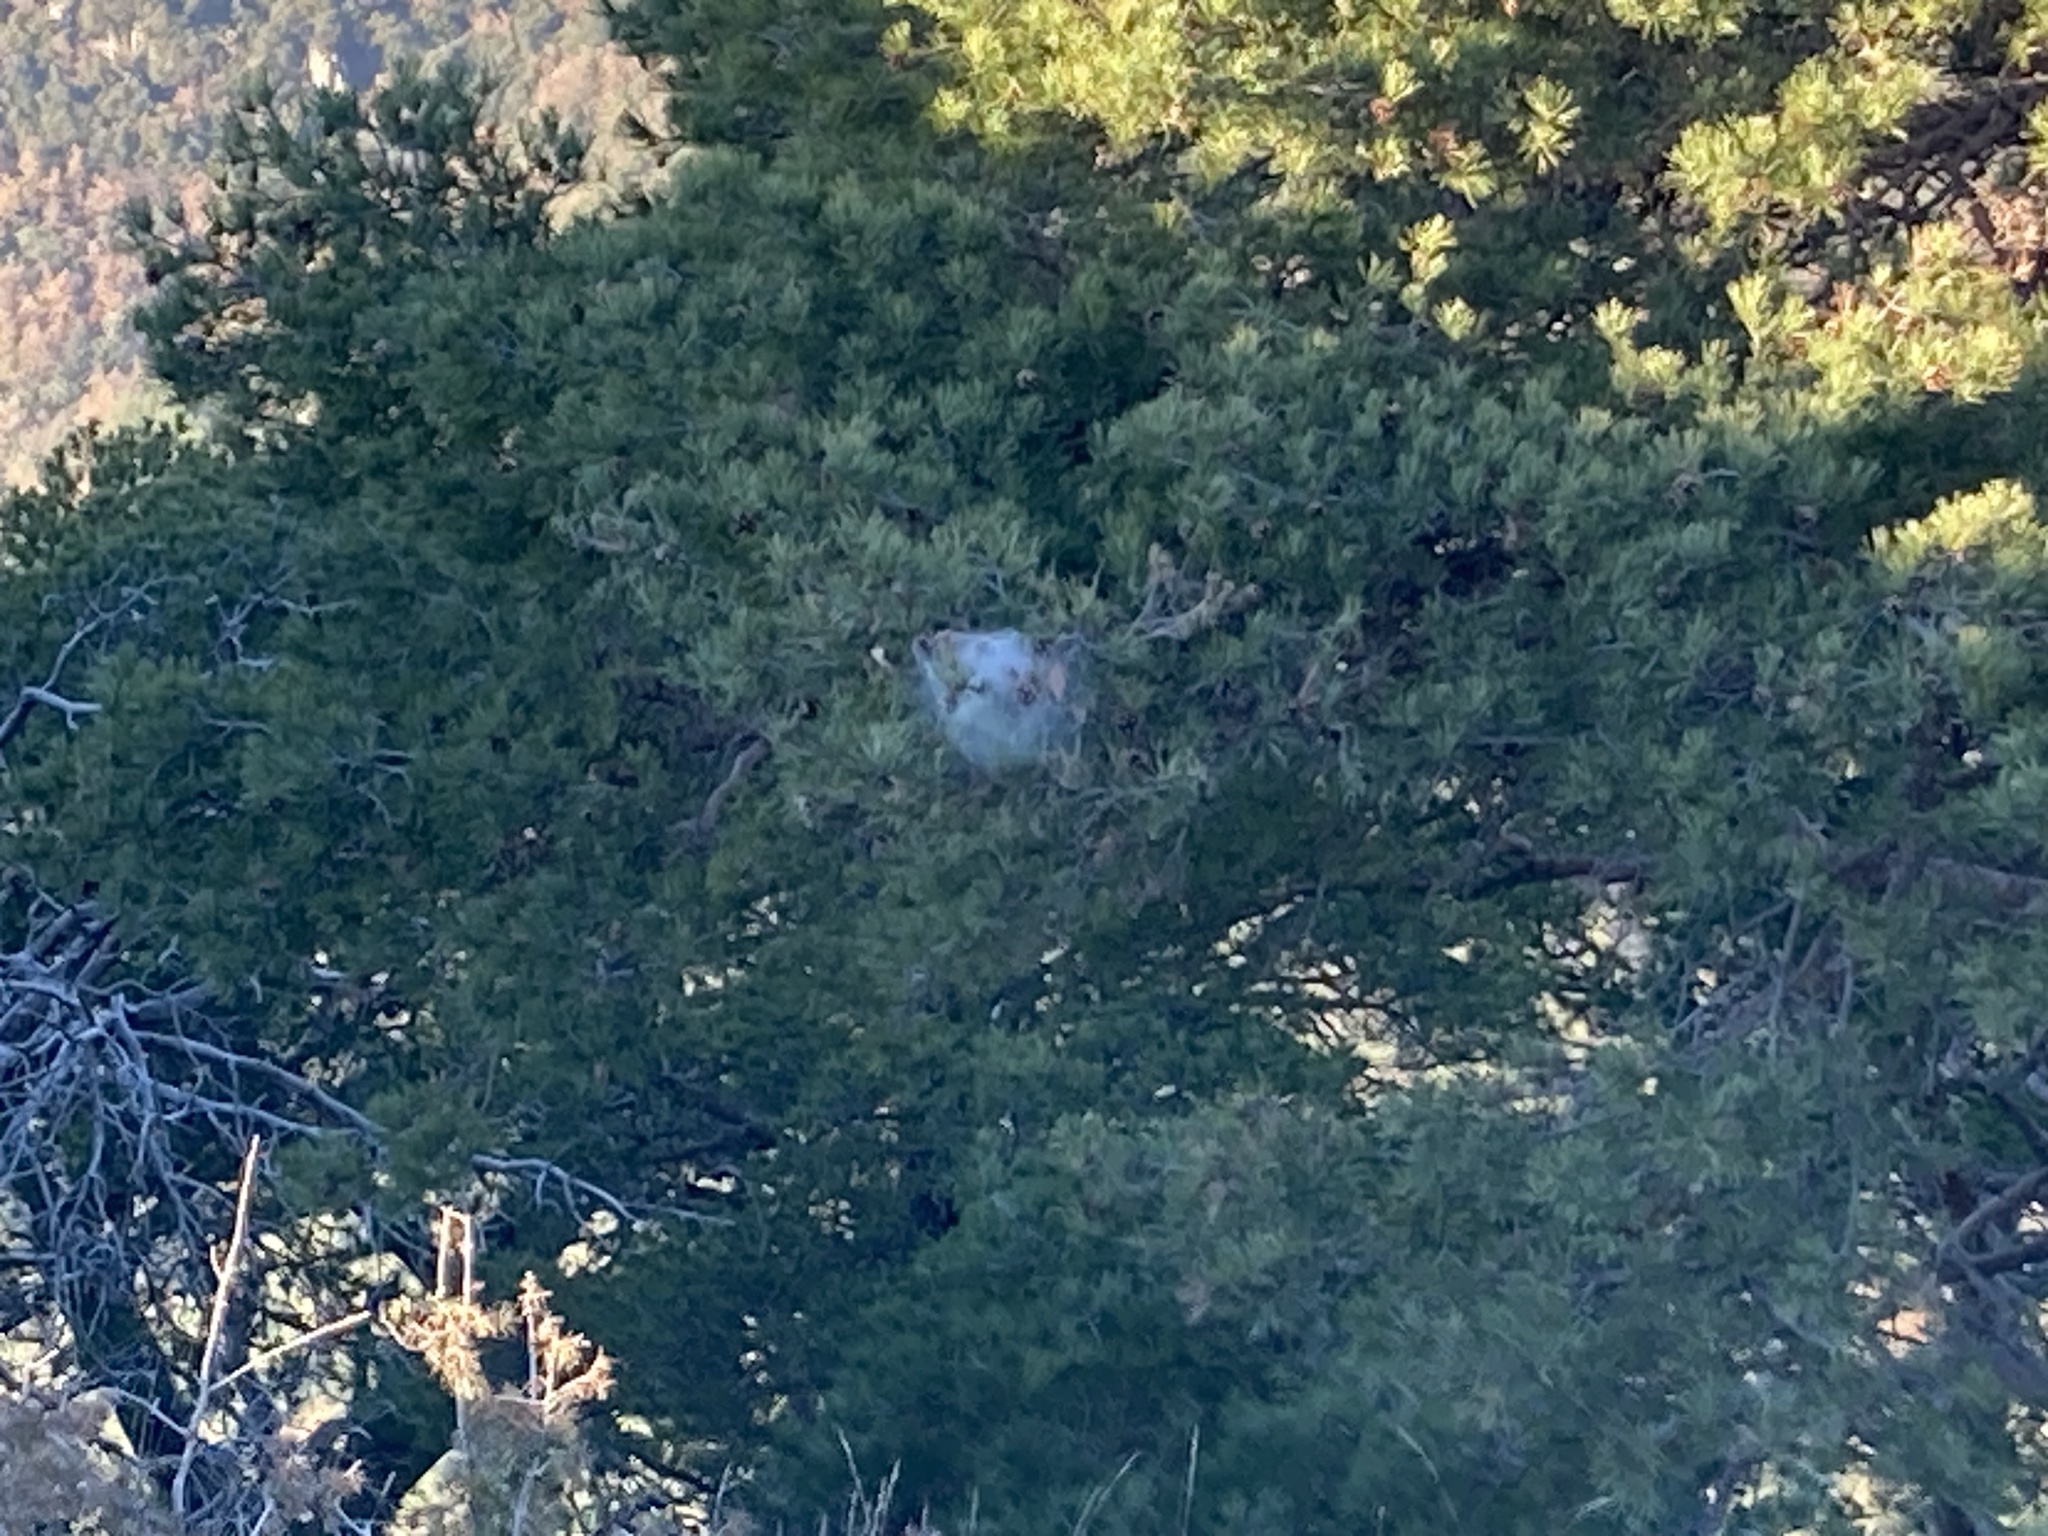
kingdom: Animalia
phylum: Arthropoda
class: Insecta
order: Lepidoptera
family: Notodontidae
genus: Thaumetopoea
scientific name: Thaumetopoea pityocampa
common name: Pine processionary
